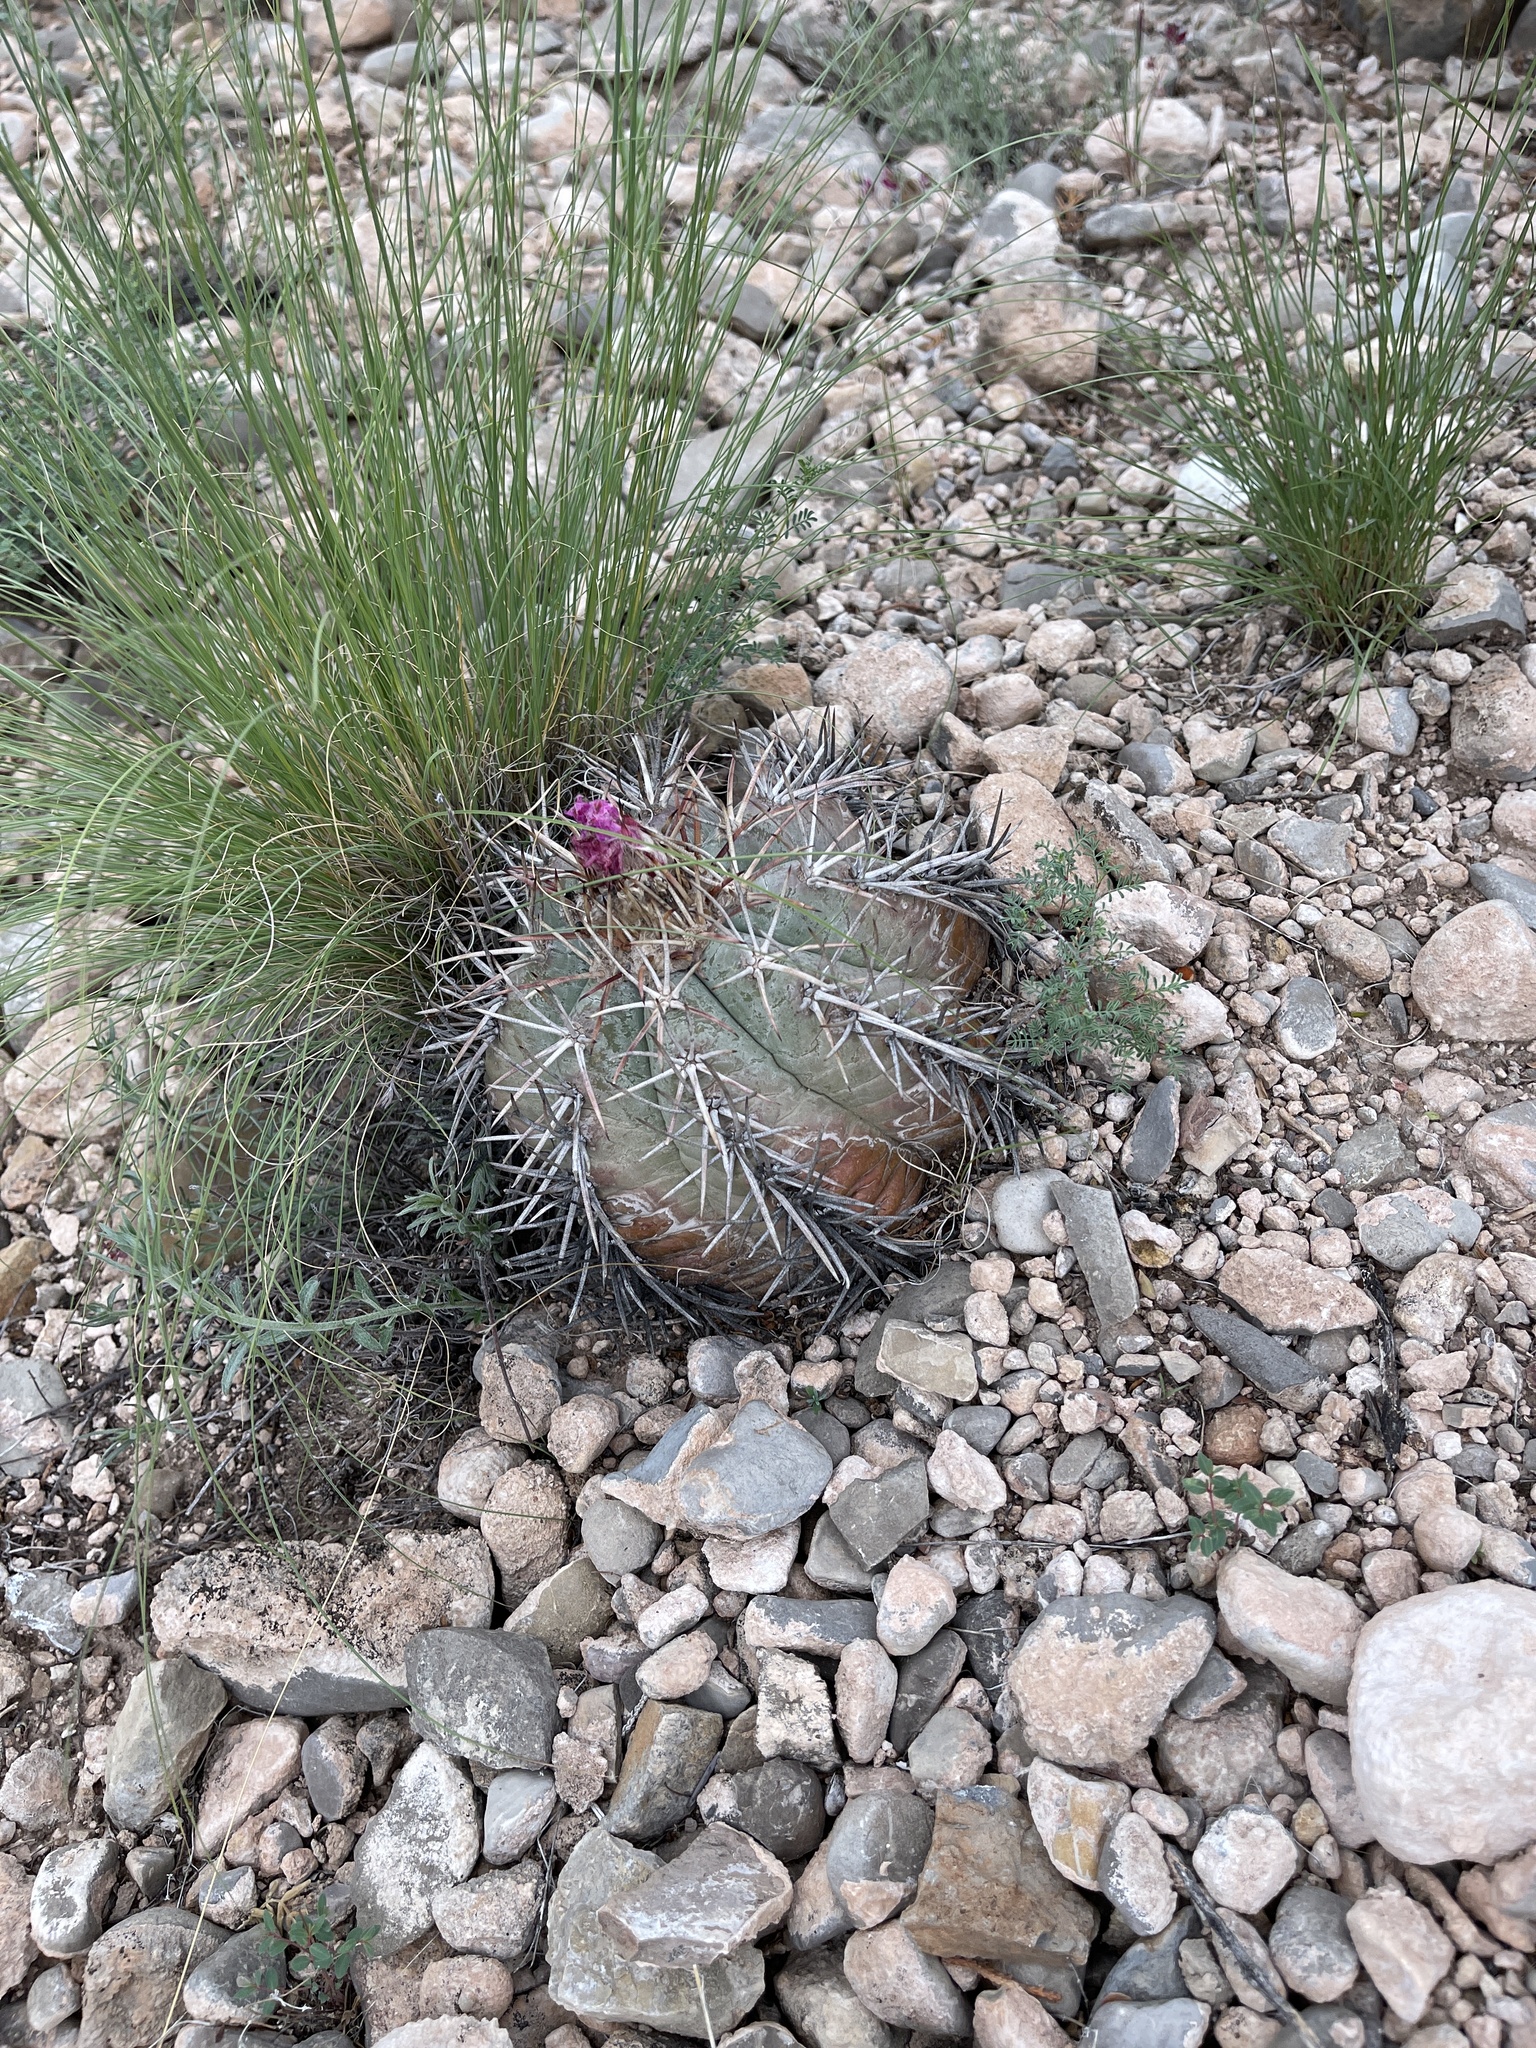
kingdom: Plantae
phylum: Tracheophyta
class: Magnoliopsida
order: Caryophyllales
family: Cactaceae
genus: Echinocactus
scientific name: Echinocactus horizonthalonius
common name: Devilshead
